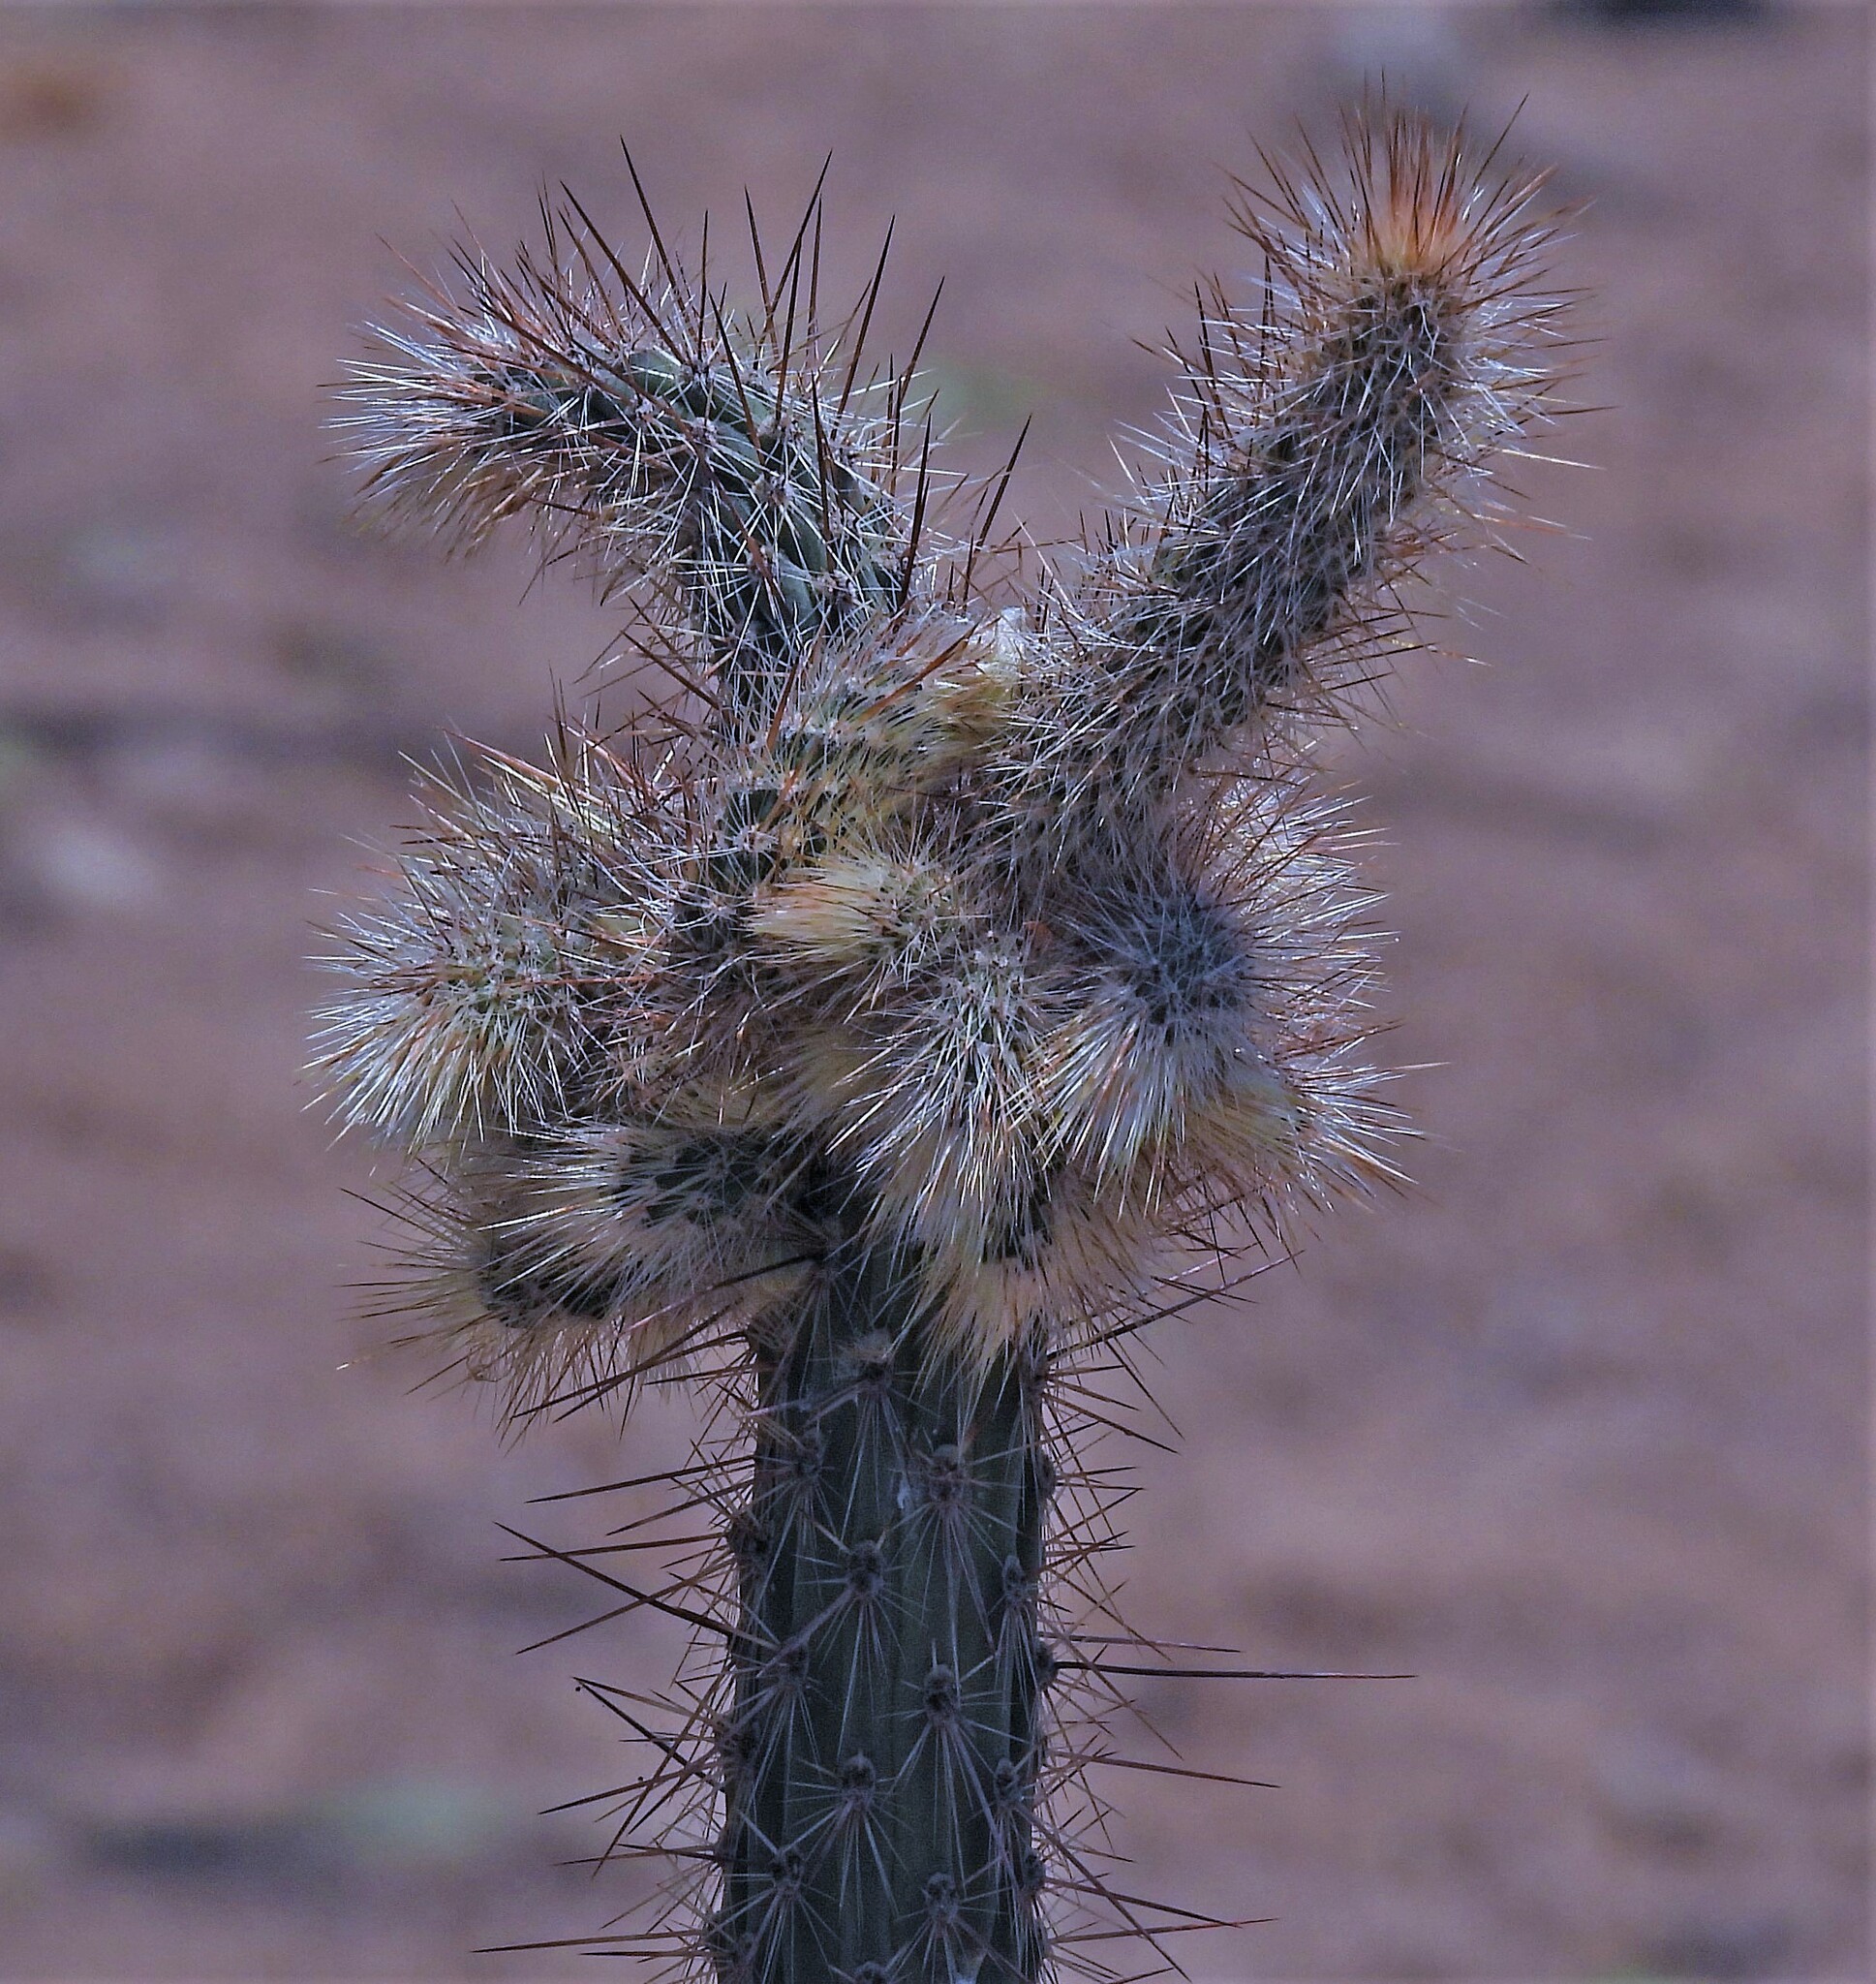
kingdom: Plantae
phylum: Tracheophyta
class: Magnoliopsida
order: Caryophyllales
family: Cactaceae
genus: Cleistocactus
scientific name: Cleistocactus baumannii
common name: Scarlet-bugler
